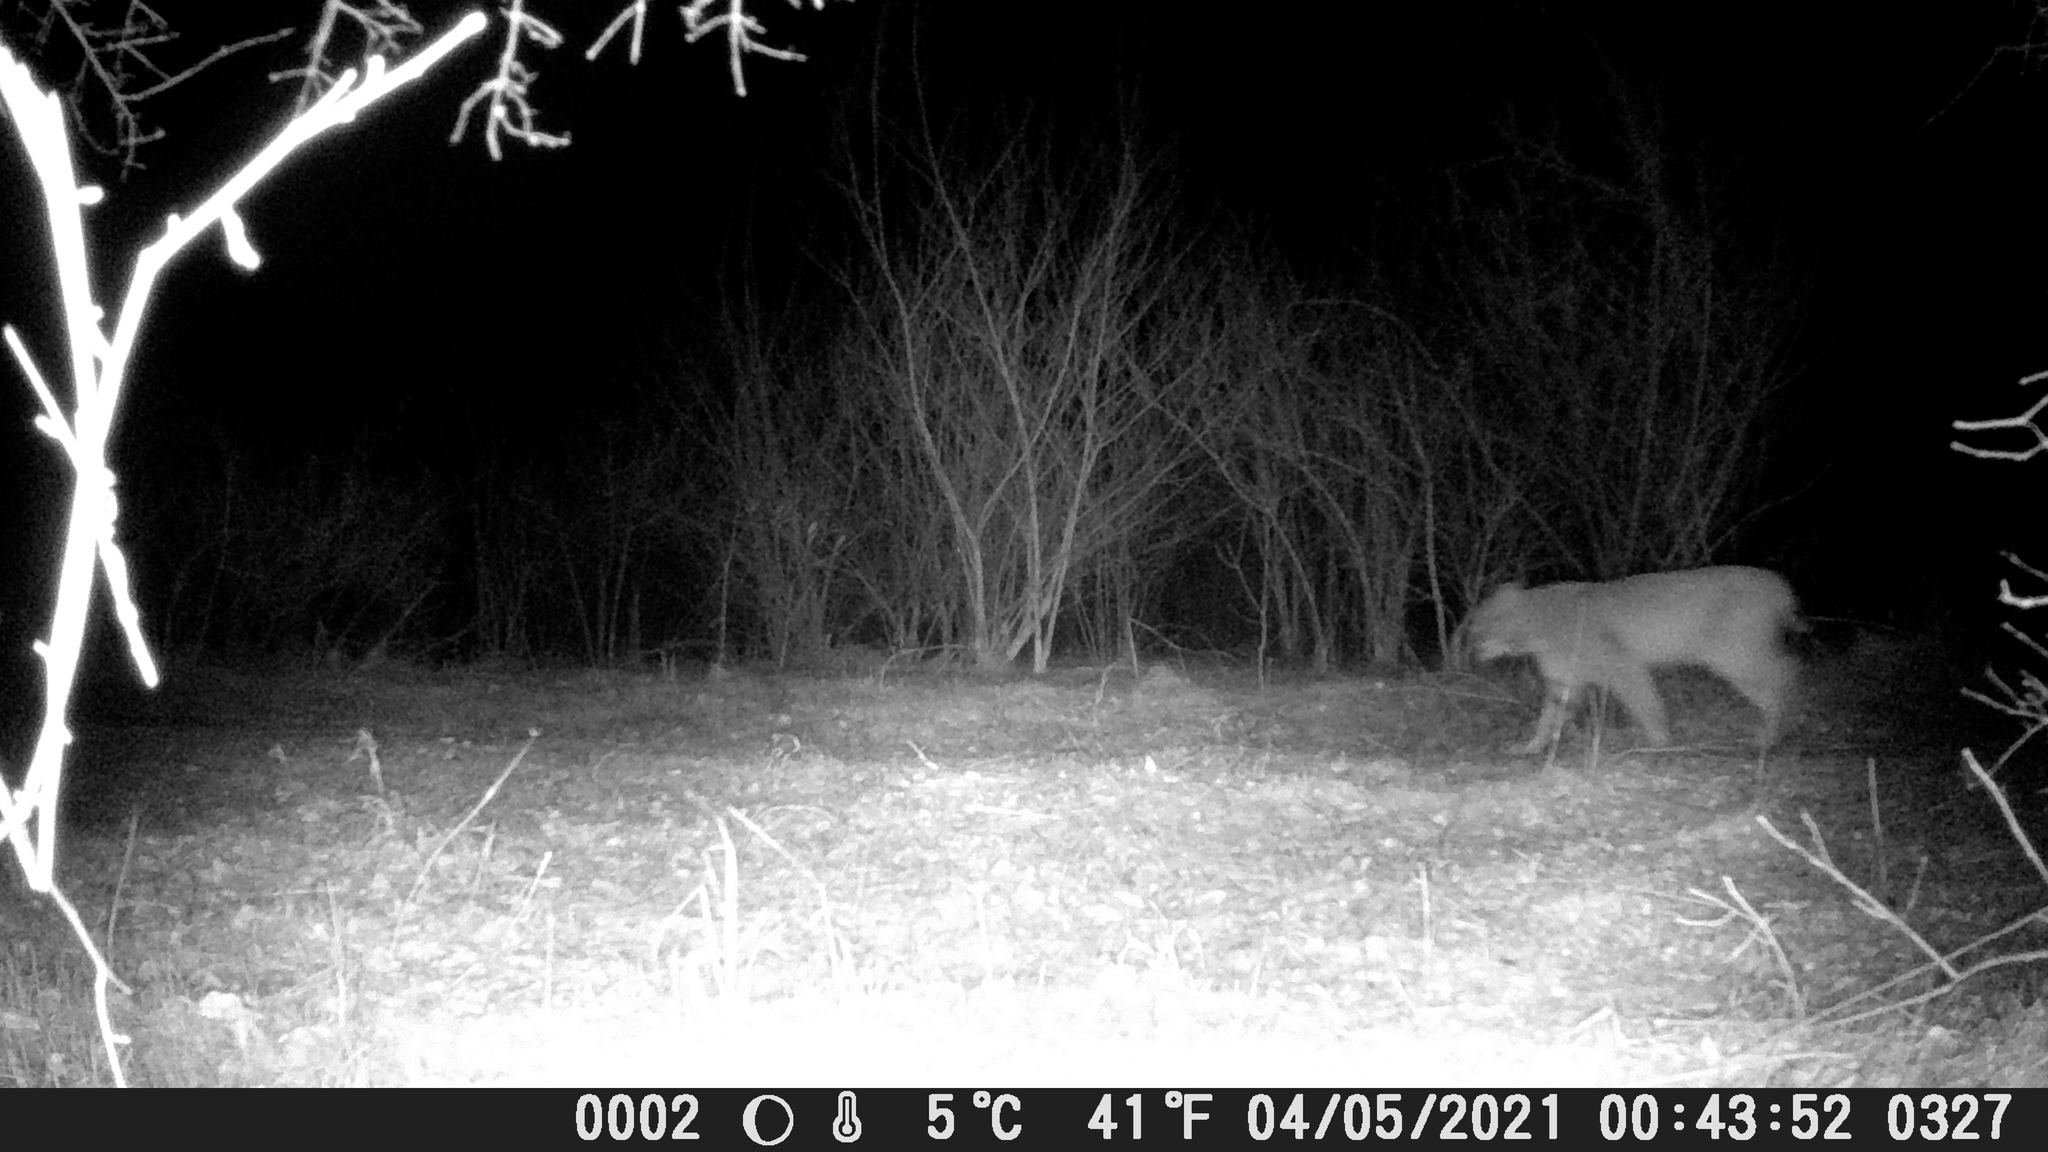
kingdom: Animalia
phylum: Chordata
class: Mammalia
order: Carnivora
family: Felidae
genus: Lynx
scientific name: Lynx rufus
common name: Bobcat
